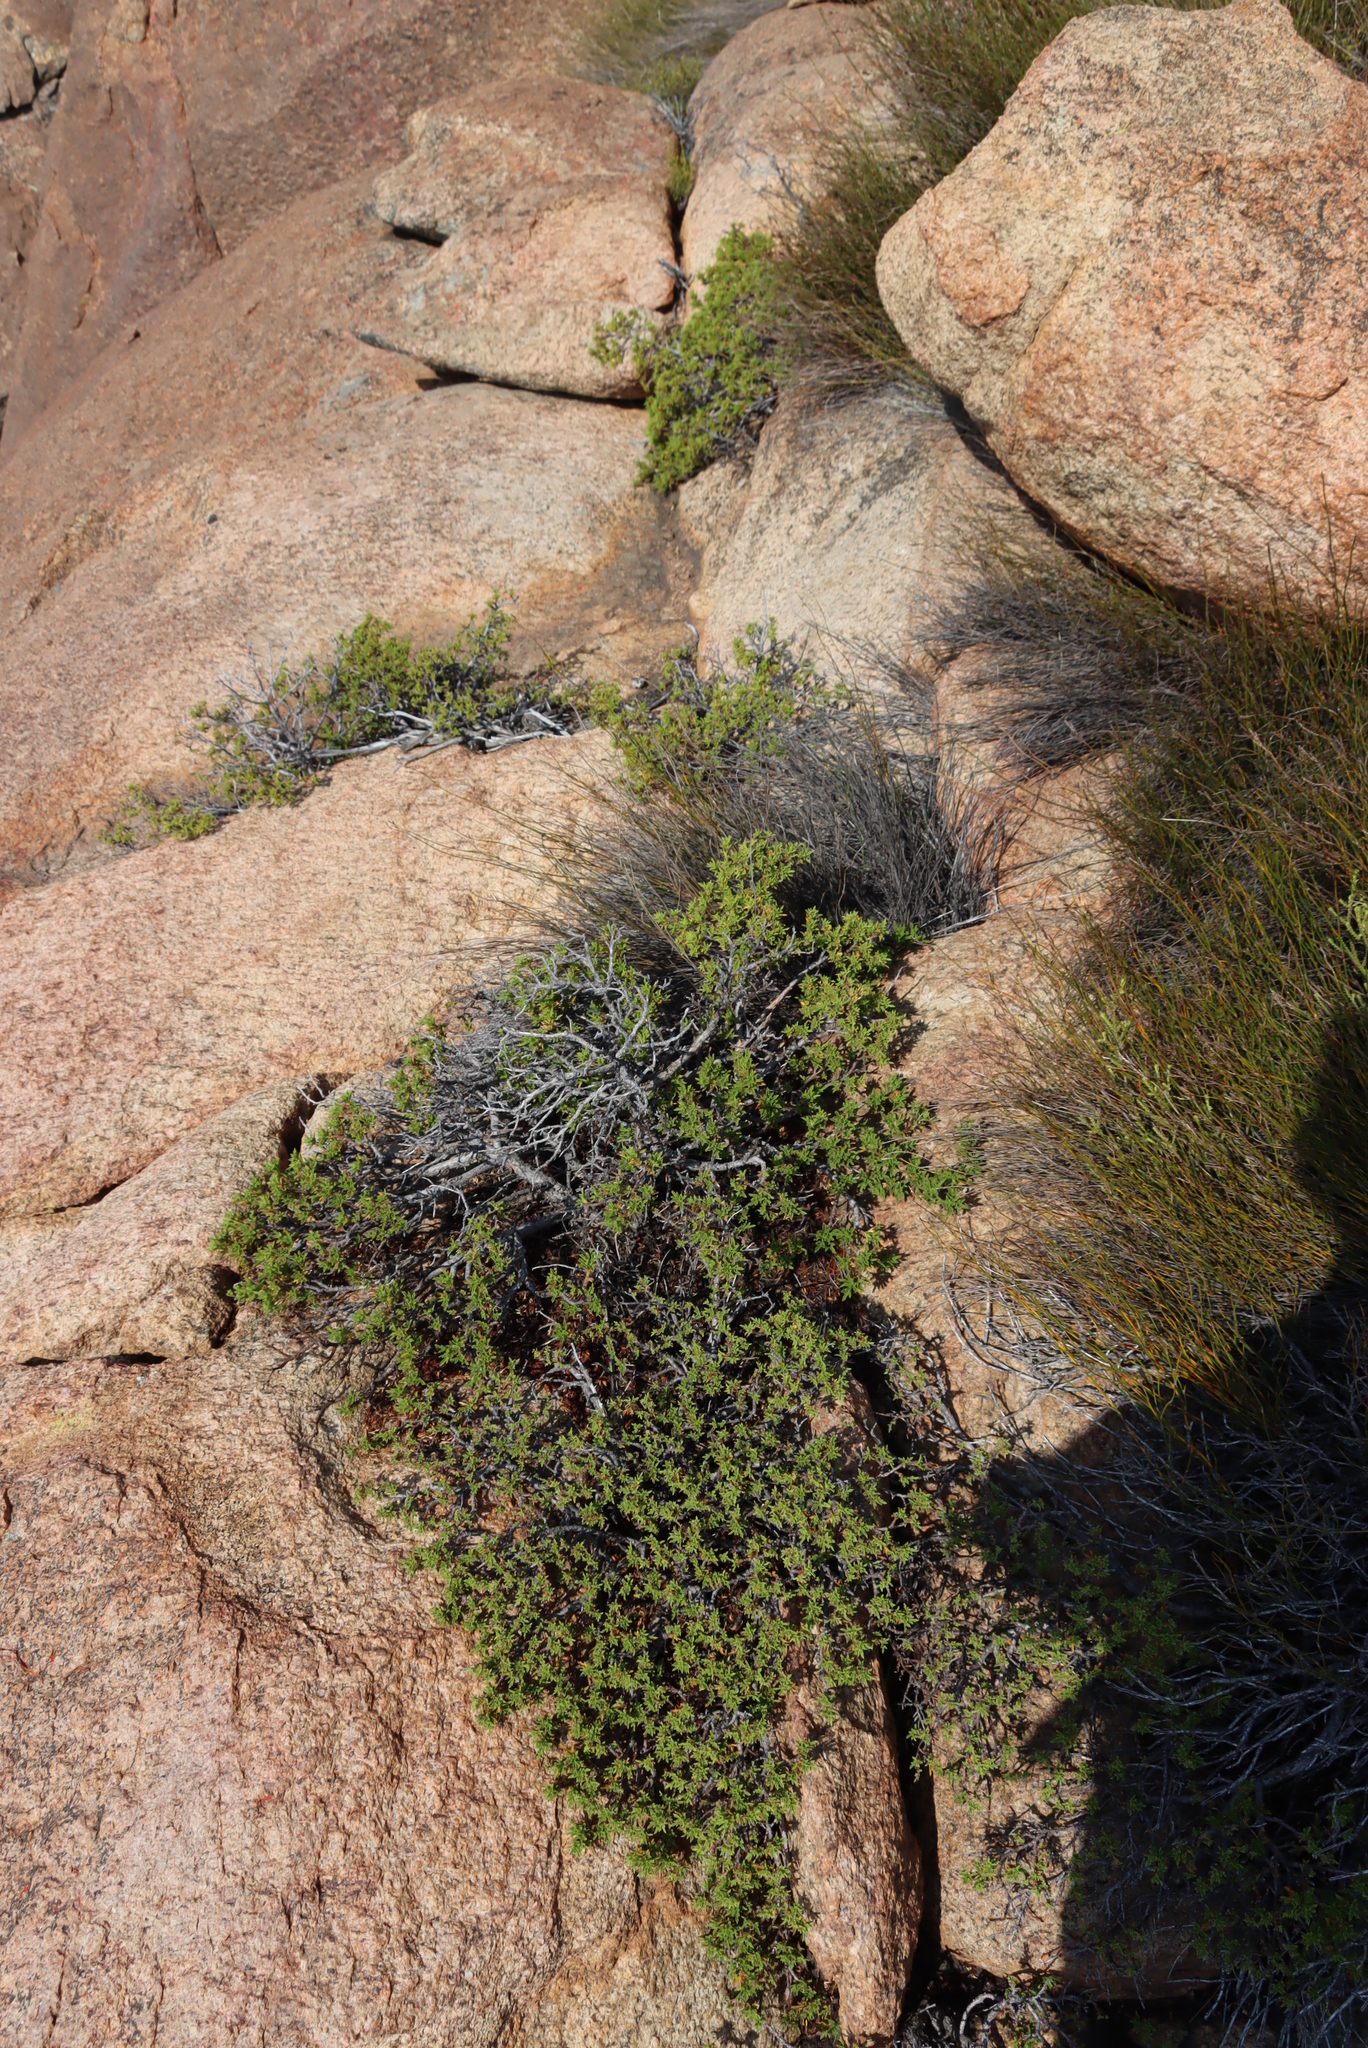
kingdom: Plantae
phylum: Tracheophyta
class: Magnoliopsida
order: Geraniales
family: Geraniaceae
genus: Pelargonium
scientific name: Pelargonium scabrum
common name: Apricot geranium
